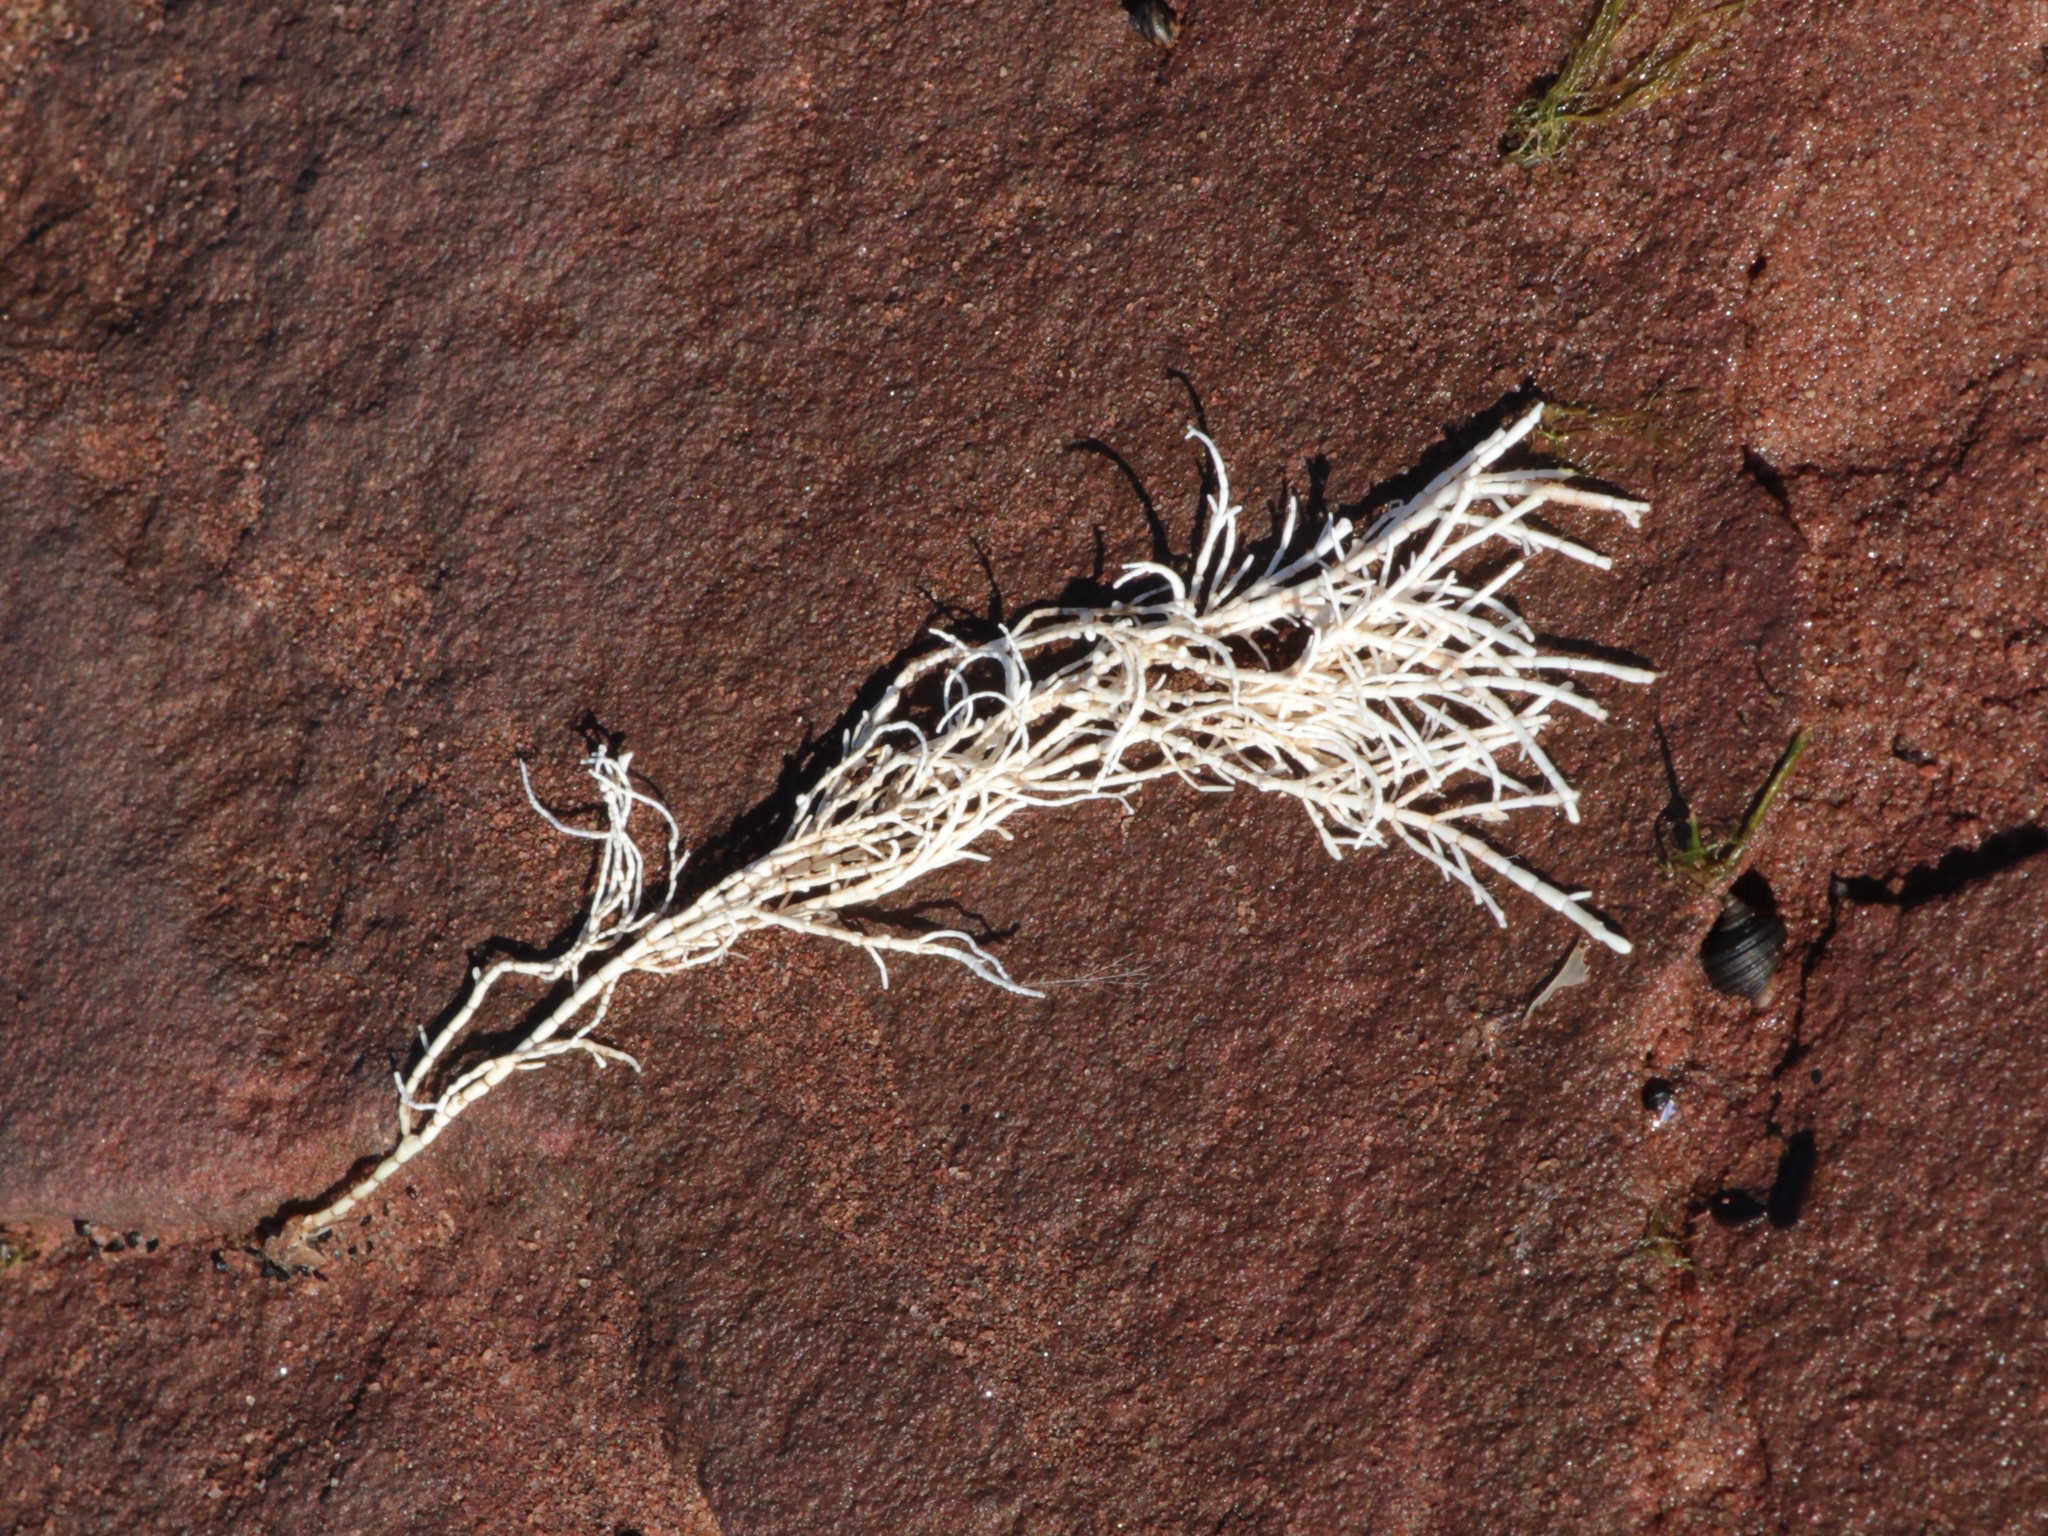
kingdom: Plantae
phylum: Rhodophyta
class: Florideophyceae
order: Corallinales
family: Corallinaceae
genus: Corallina
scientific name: Corallina officinalis
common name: Coral weed
